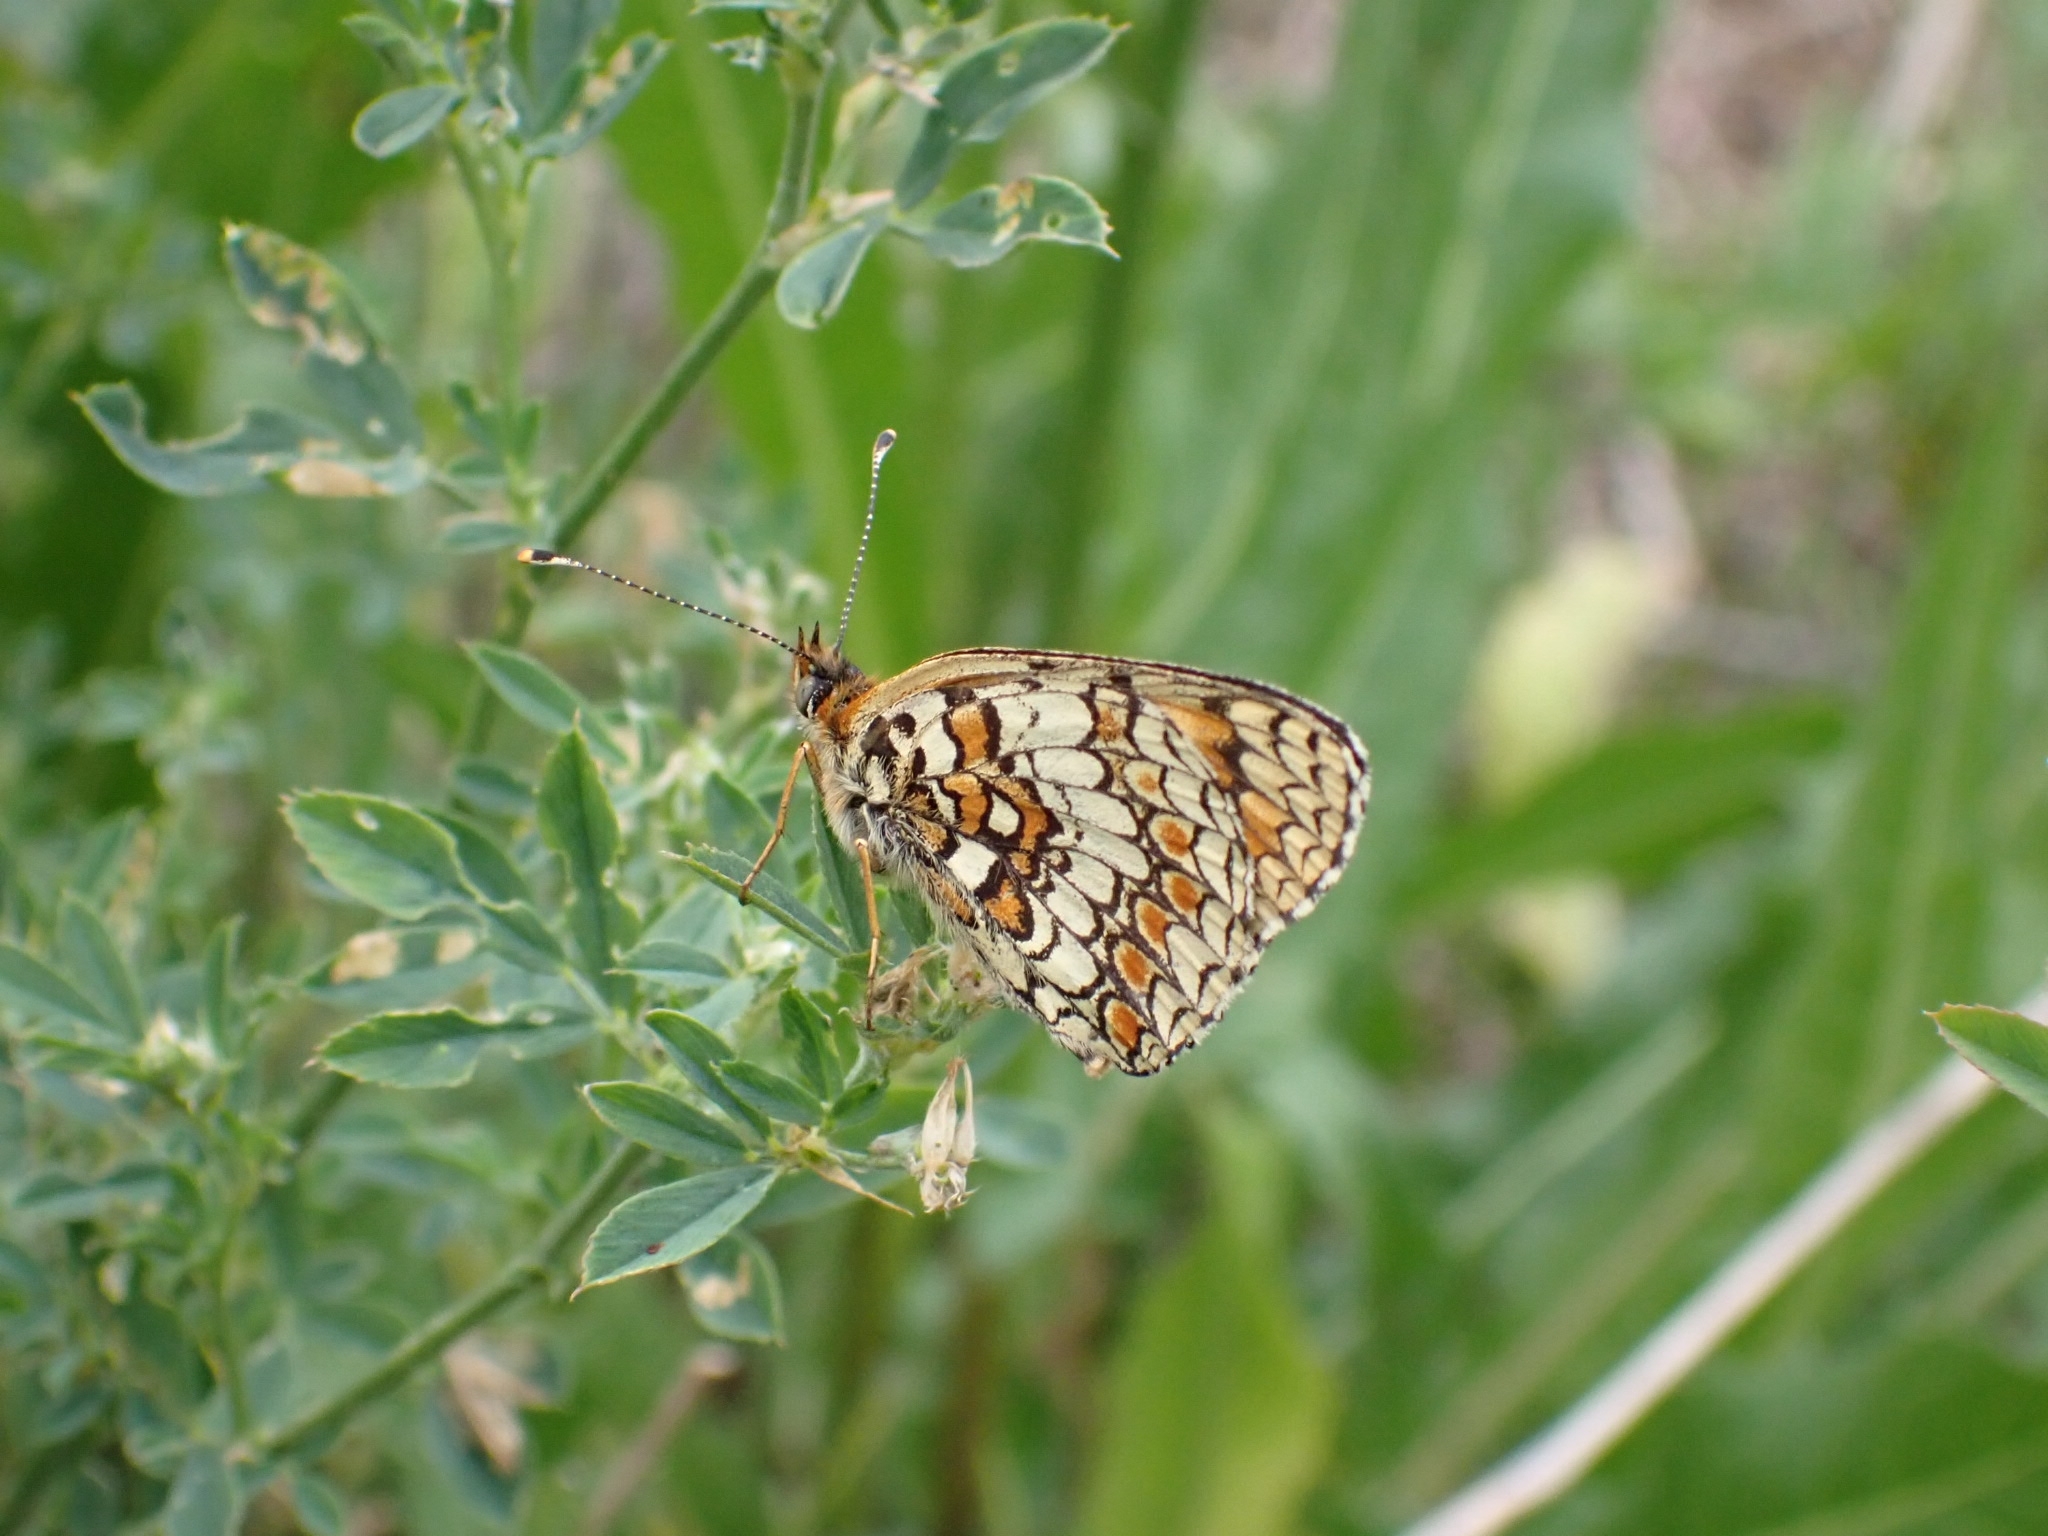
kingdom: Animalia
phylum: Arthropoda
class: Insecta
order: Lepidoptera
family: Nymphalidae
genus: Melitaea
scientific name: Melitaea phoebe
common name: Knapweed fritillary
